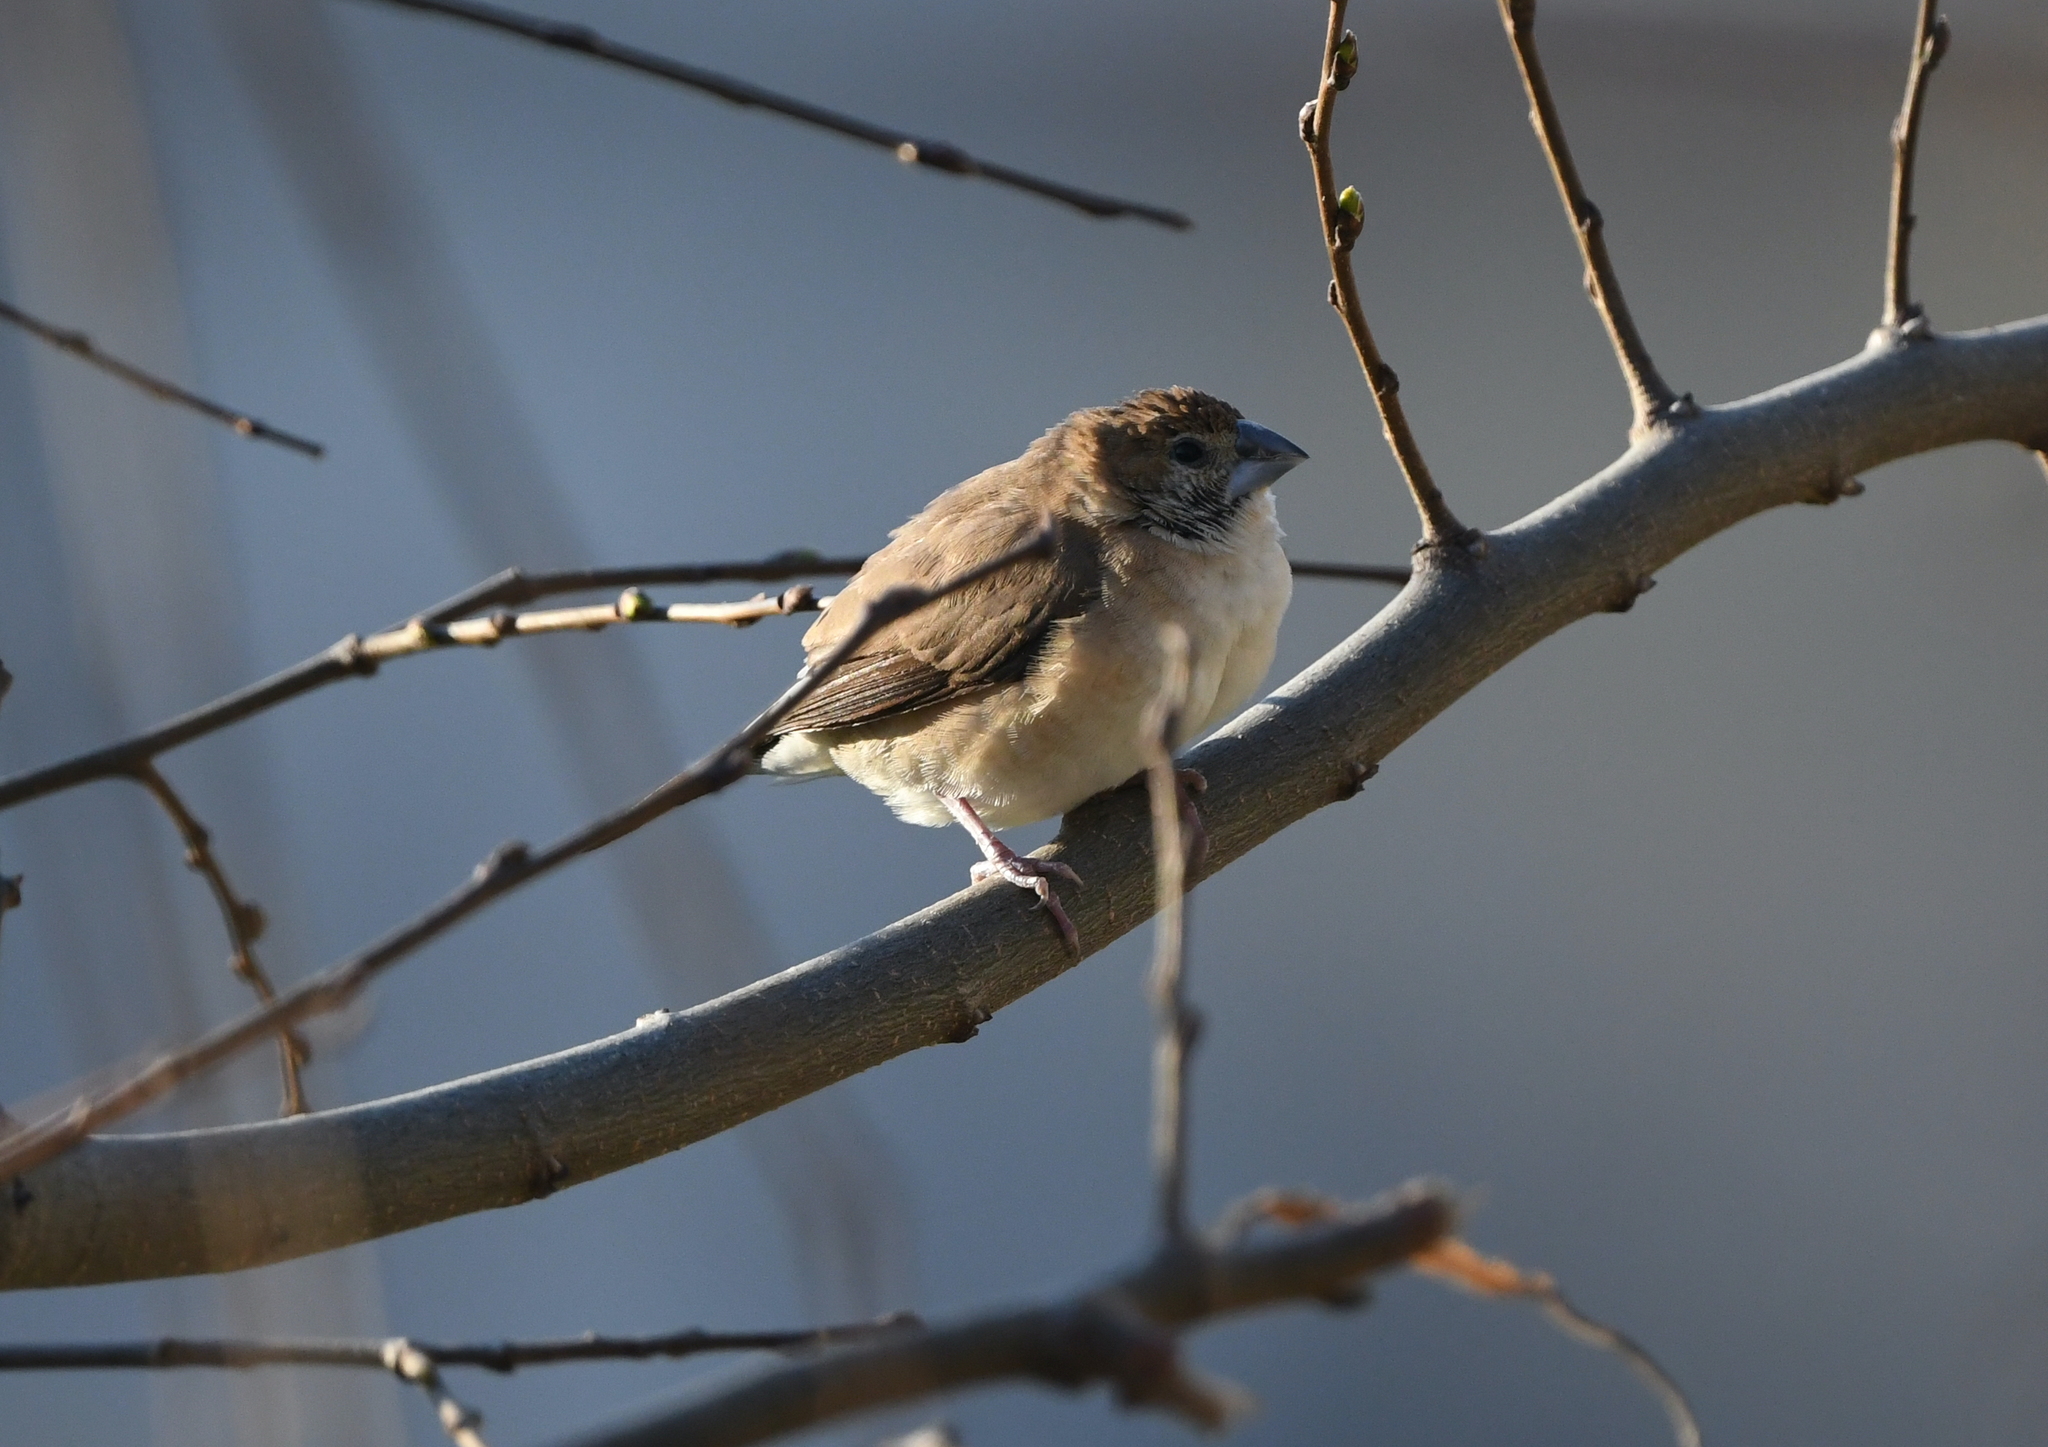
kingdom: Animalia
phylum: Chordata
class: Aves
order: Passeriformes
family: Estrildidae
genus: Euodice
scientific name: Euodice malabarica
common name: Indian silverbill
